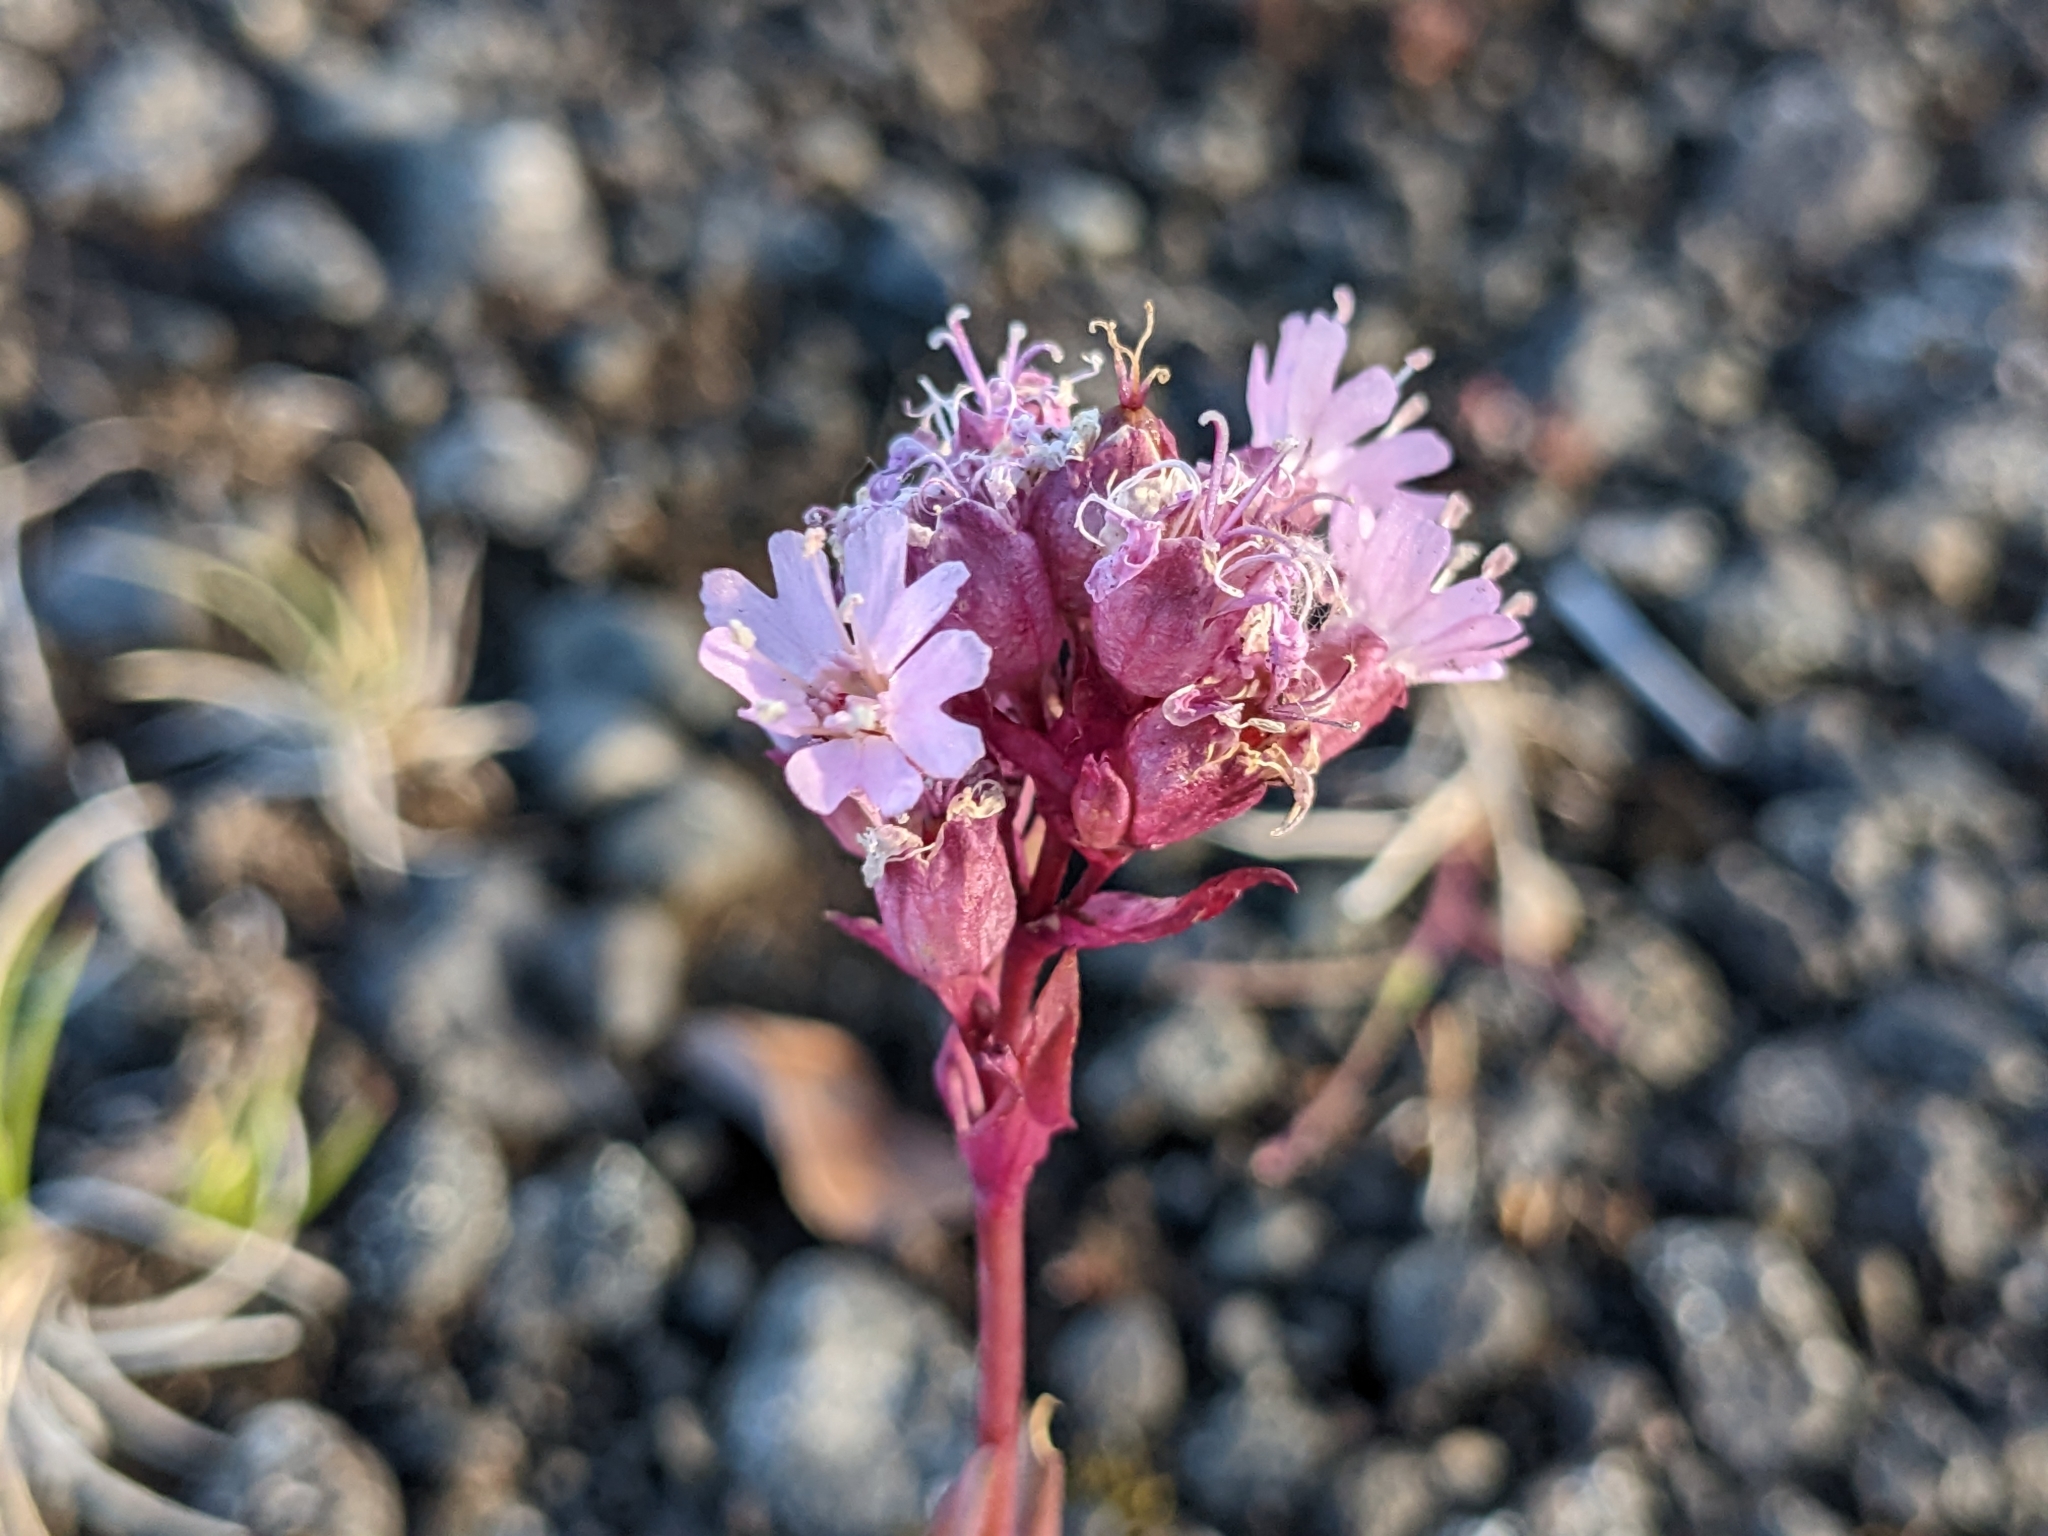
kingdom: Plantae
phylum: Tracheophyta
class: Magnoliopsida
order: Caryophyllales
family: Caryophyllaceae
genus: Viscaria
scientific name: Viscaria alpina
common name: Alpine campion
